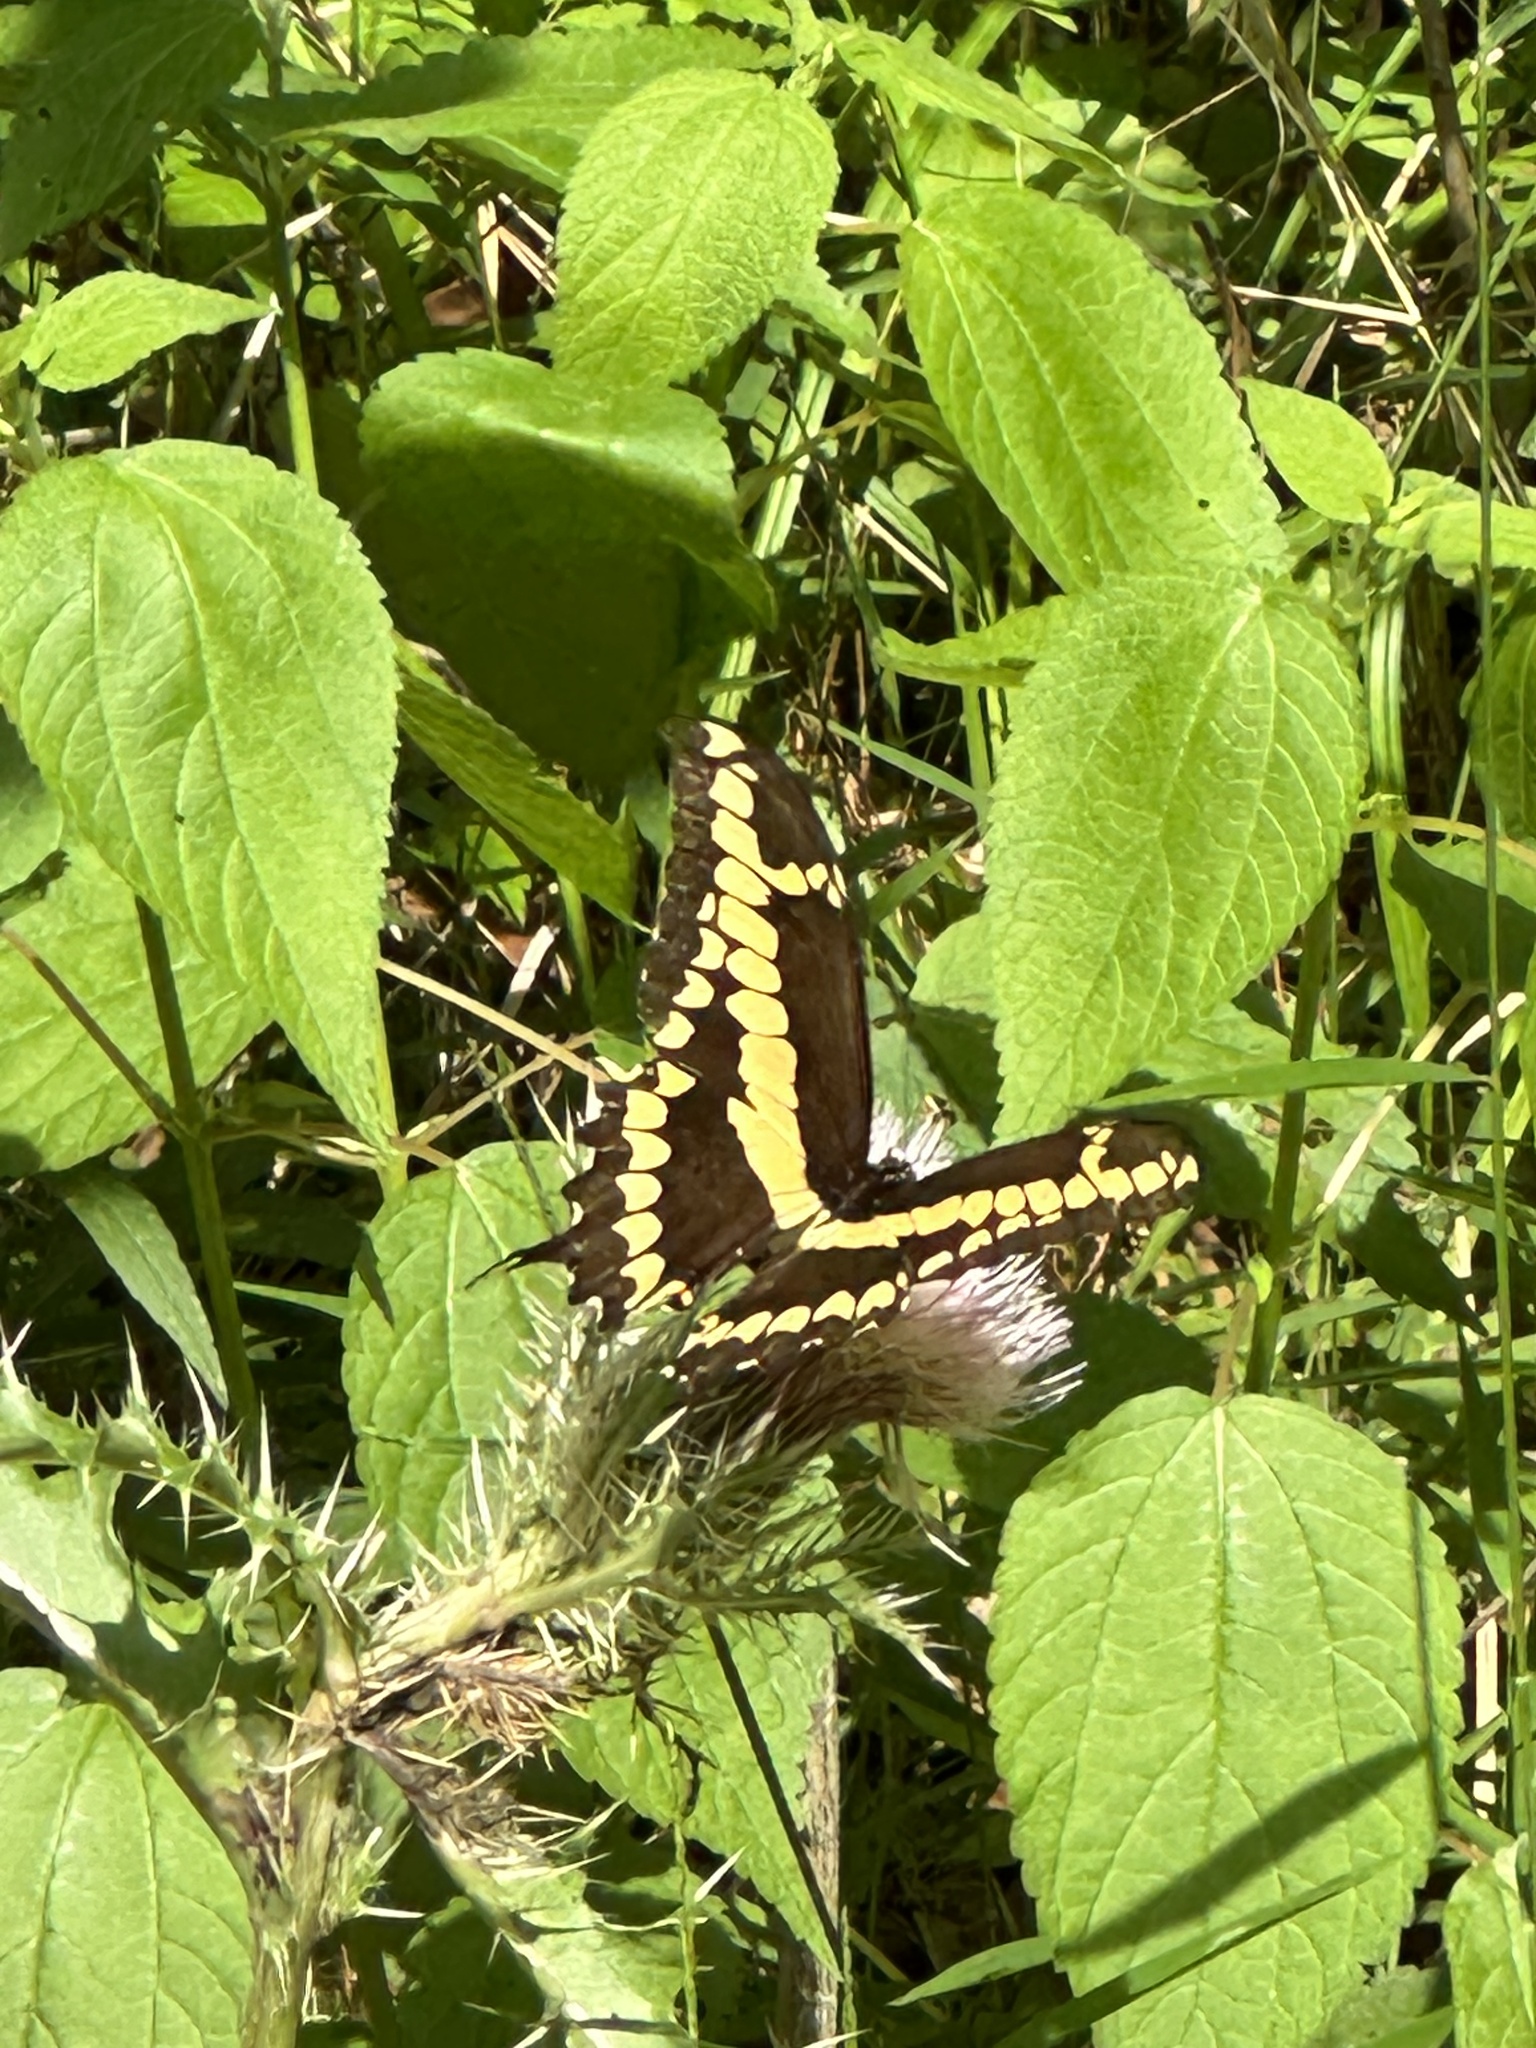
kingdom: Animalia
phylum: Arthropoda
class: Insecta
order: Lepidoptera
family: Papilionidae
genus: Papilio
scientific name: Papilio cresphontes
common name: Giant swallowtail
